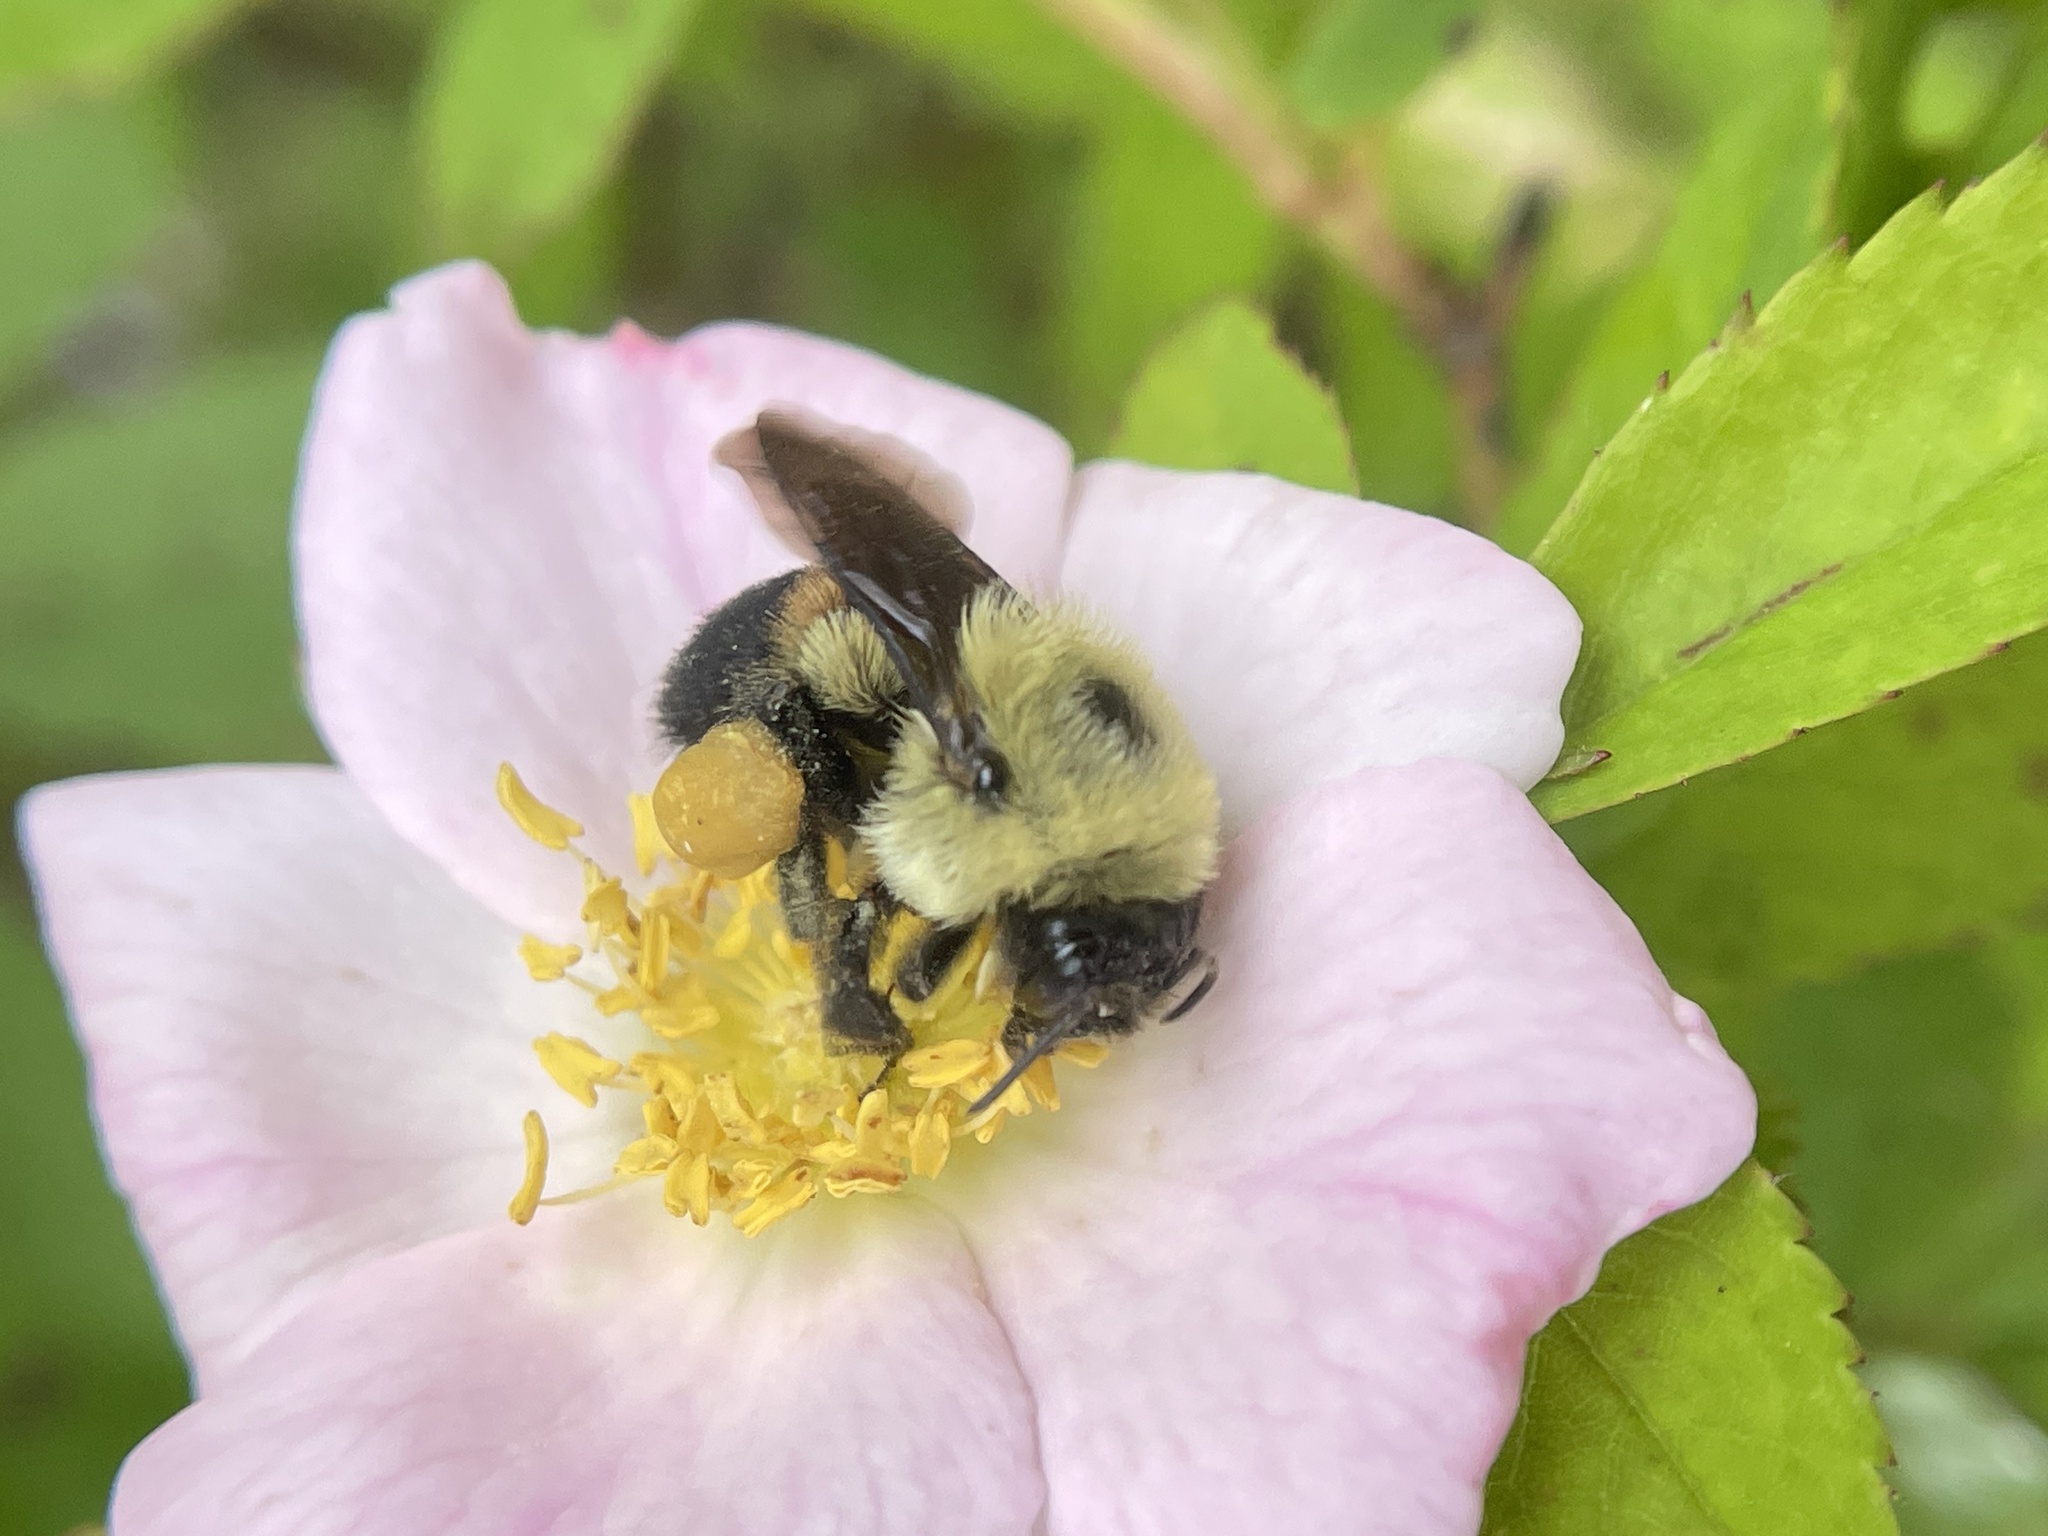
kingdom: Animalia
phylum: Arthropoda
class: Insecta
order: Hymenoptera
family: Apidae
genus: Bombus
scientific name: Bombus griseocollis
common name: Brown-belted bumble bee
